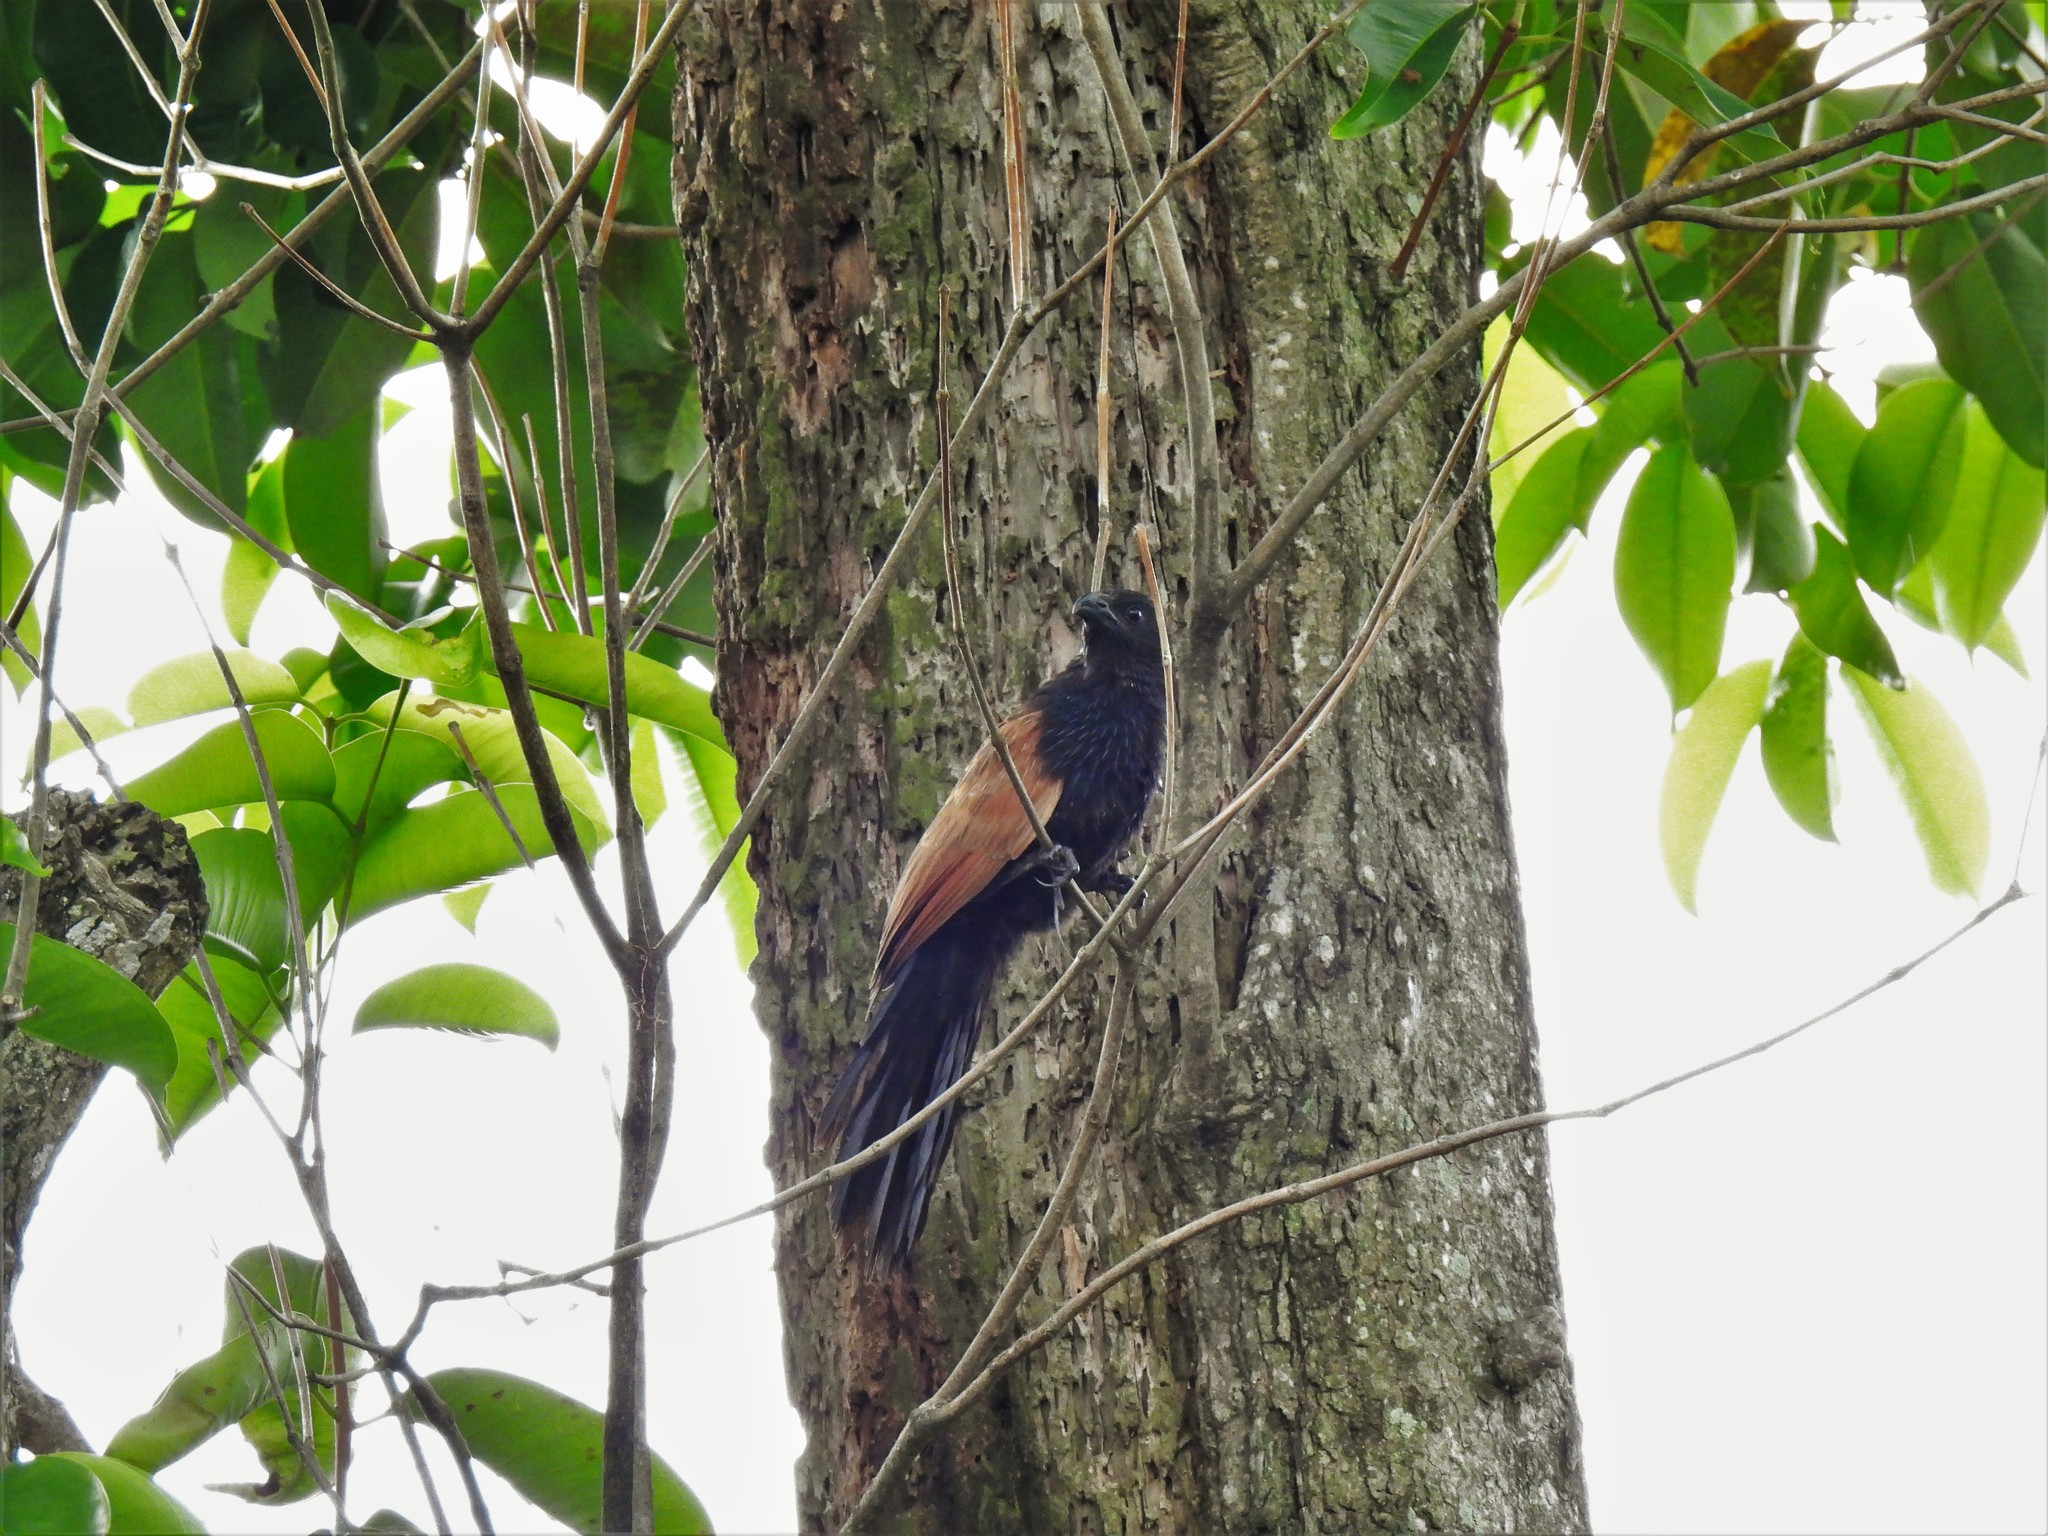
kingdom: Animalia
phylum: Chordata
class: Aves
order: Cuculiformes
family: Cuculidae
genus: Centropus
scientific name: Centropus bengalensis
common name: Lesser coucal
